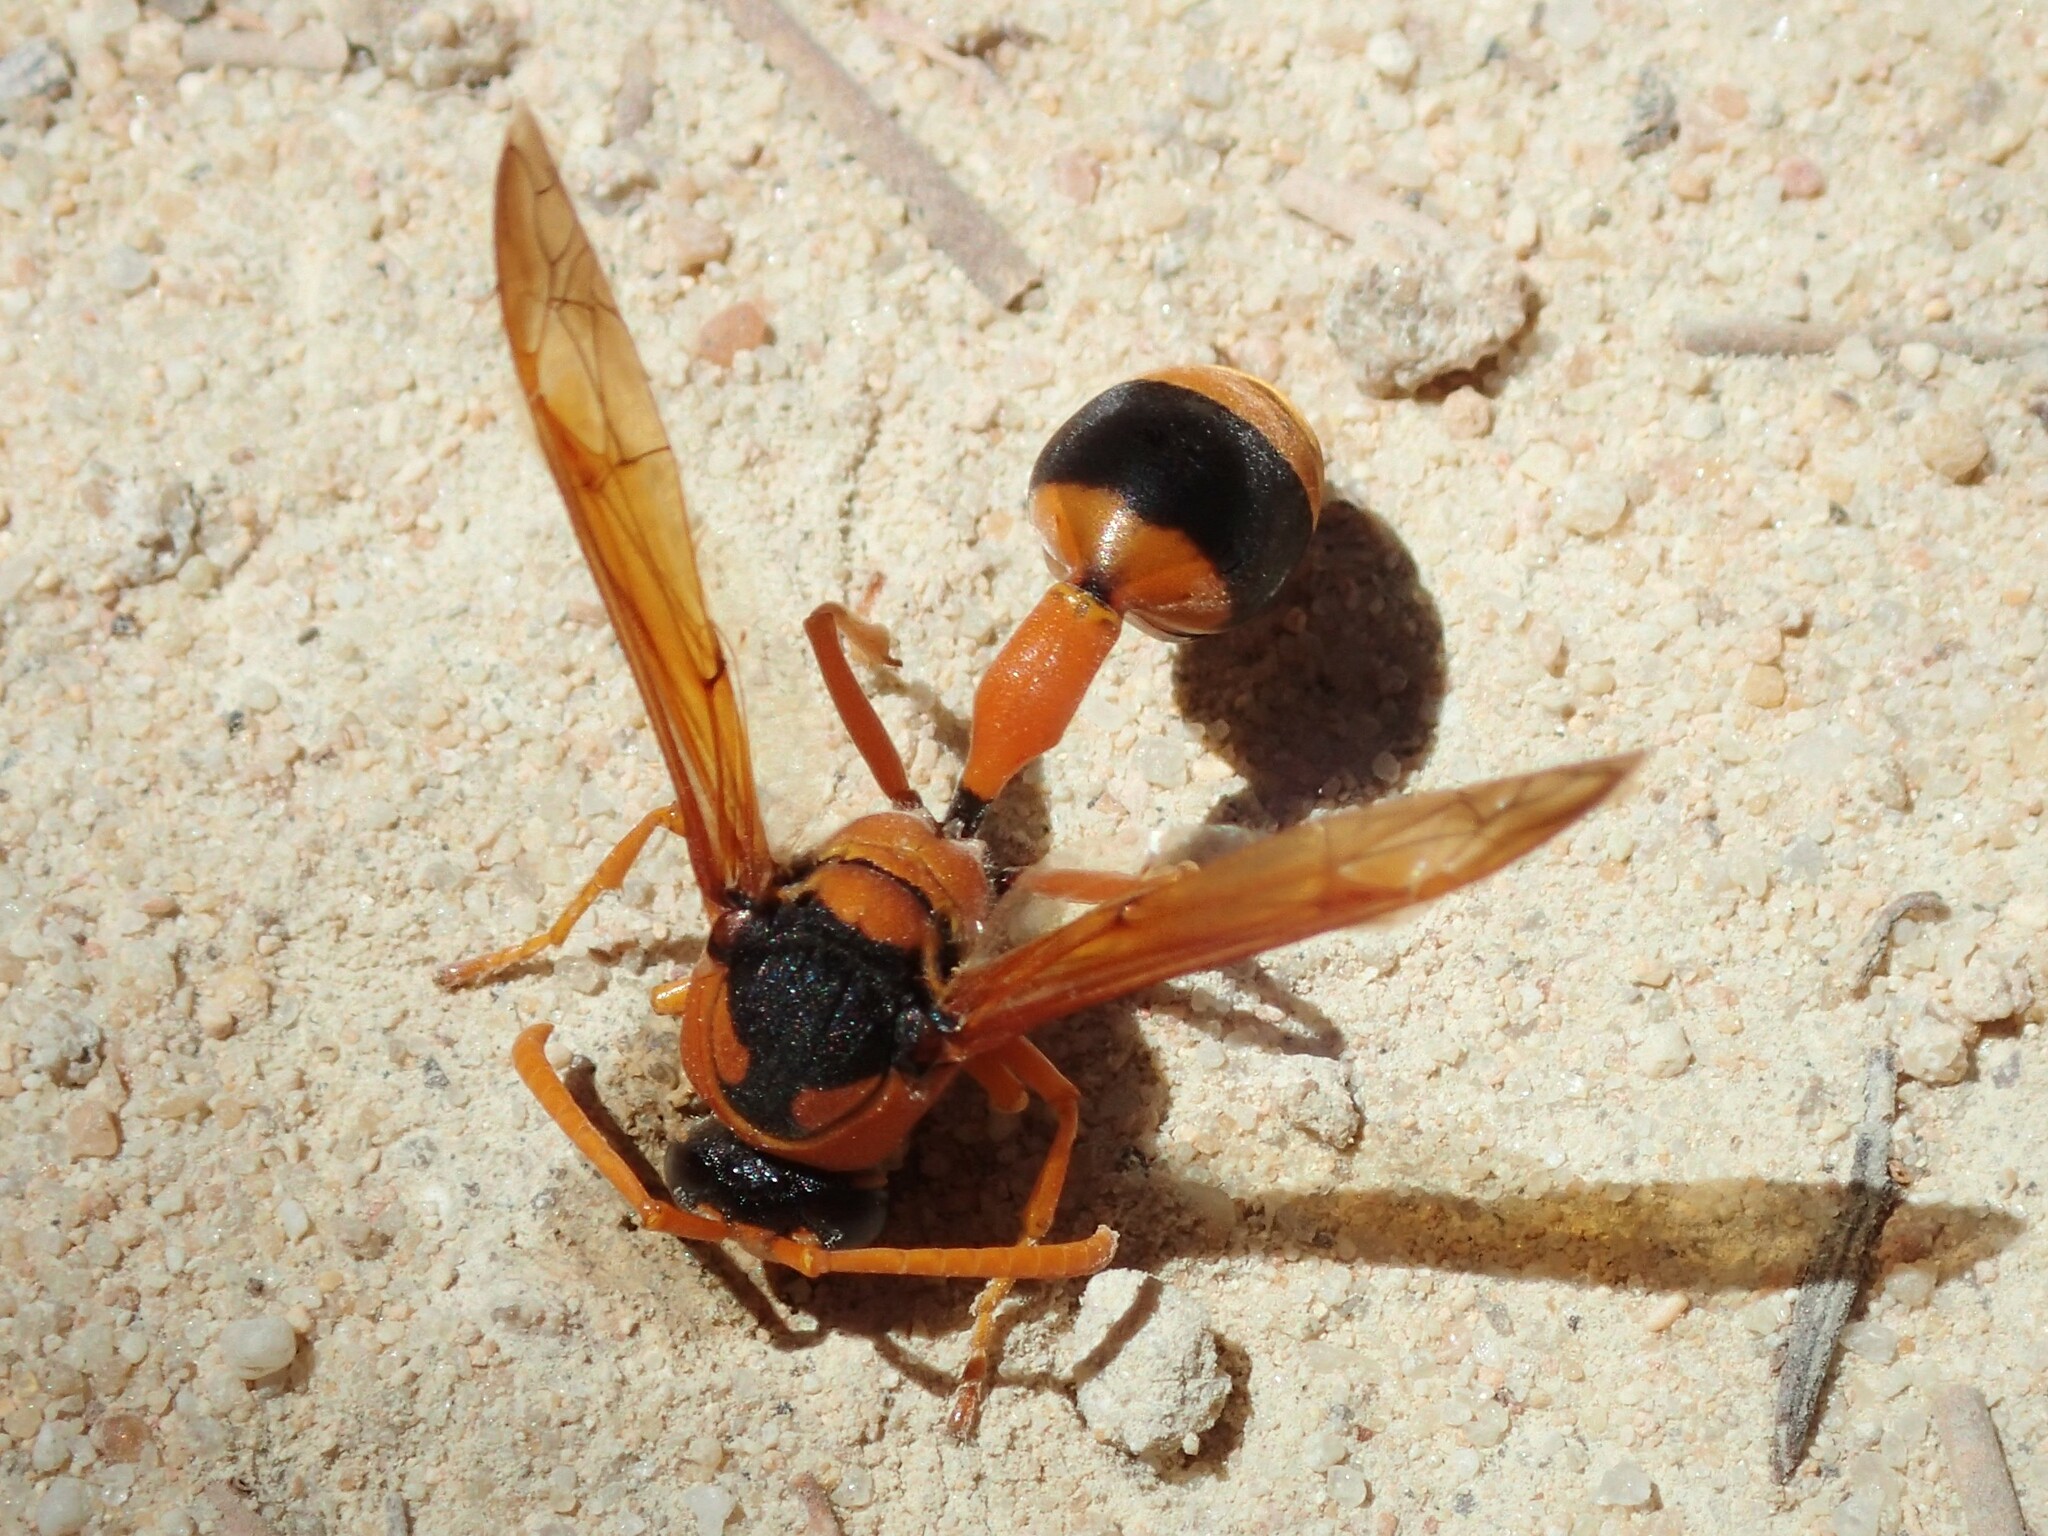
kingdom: Animalia
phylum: Arthropoda
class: Insecta
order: Hymenoptera
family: Eumenidae
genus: Delta
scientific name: Delta bicinctum
